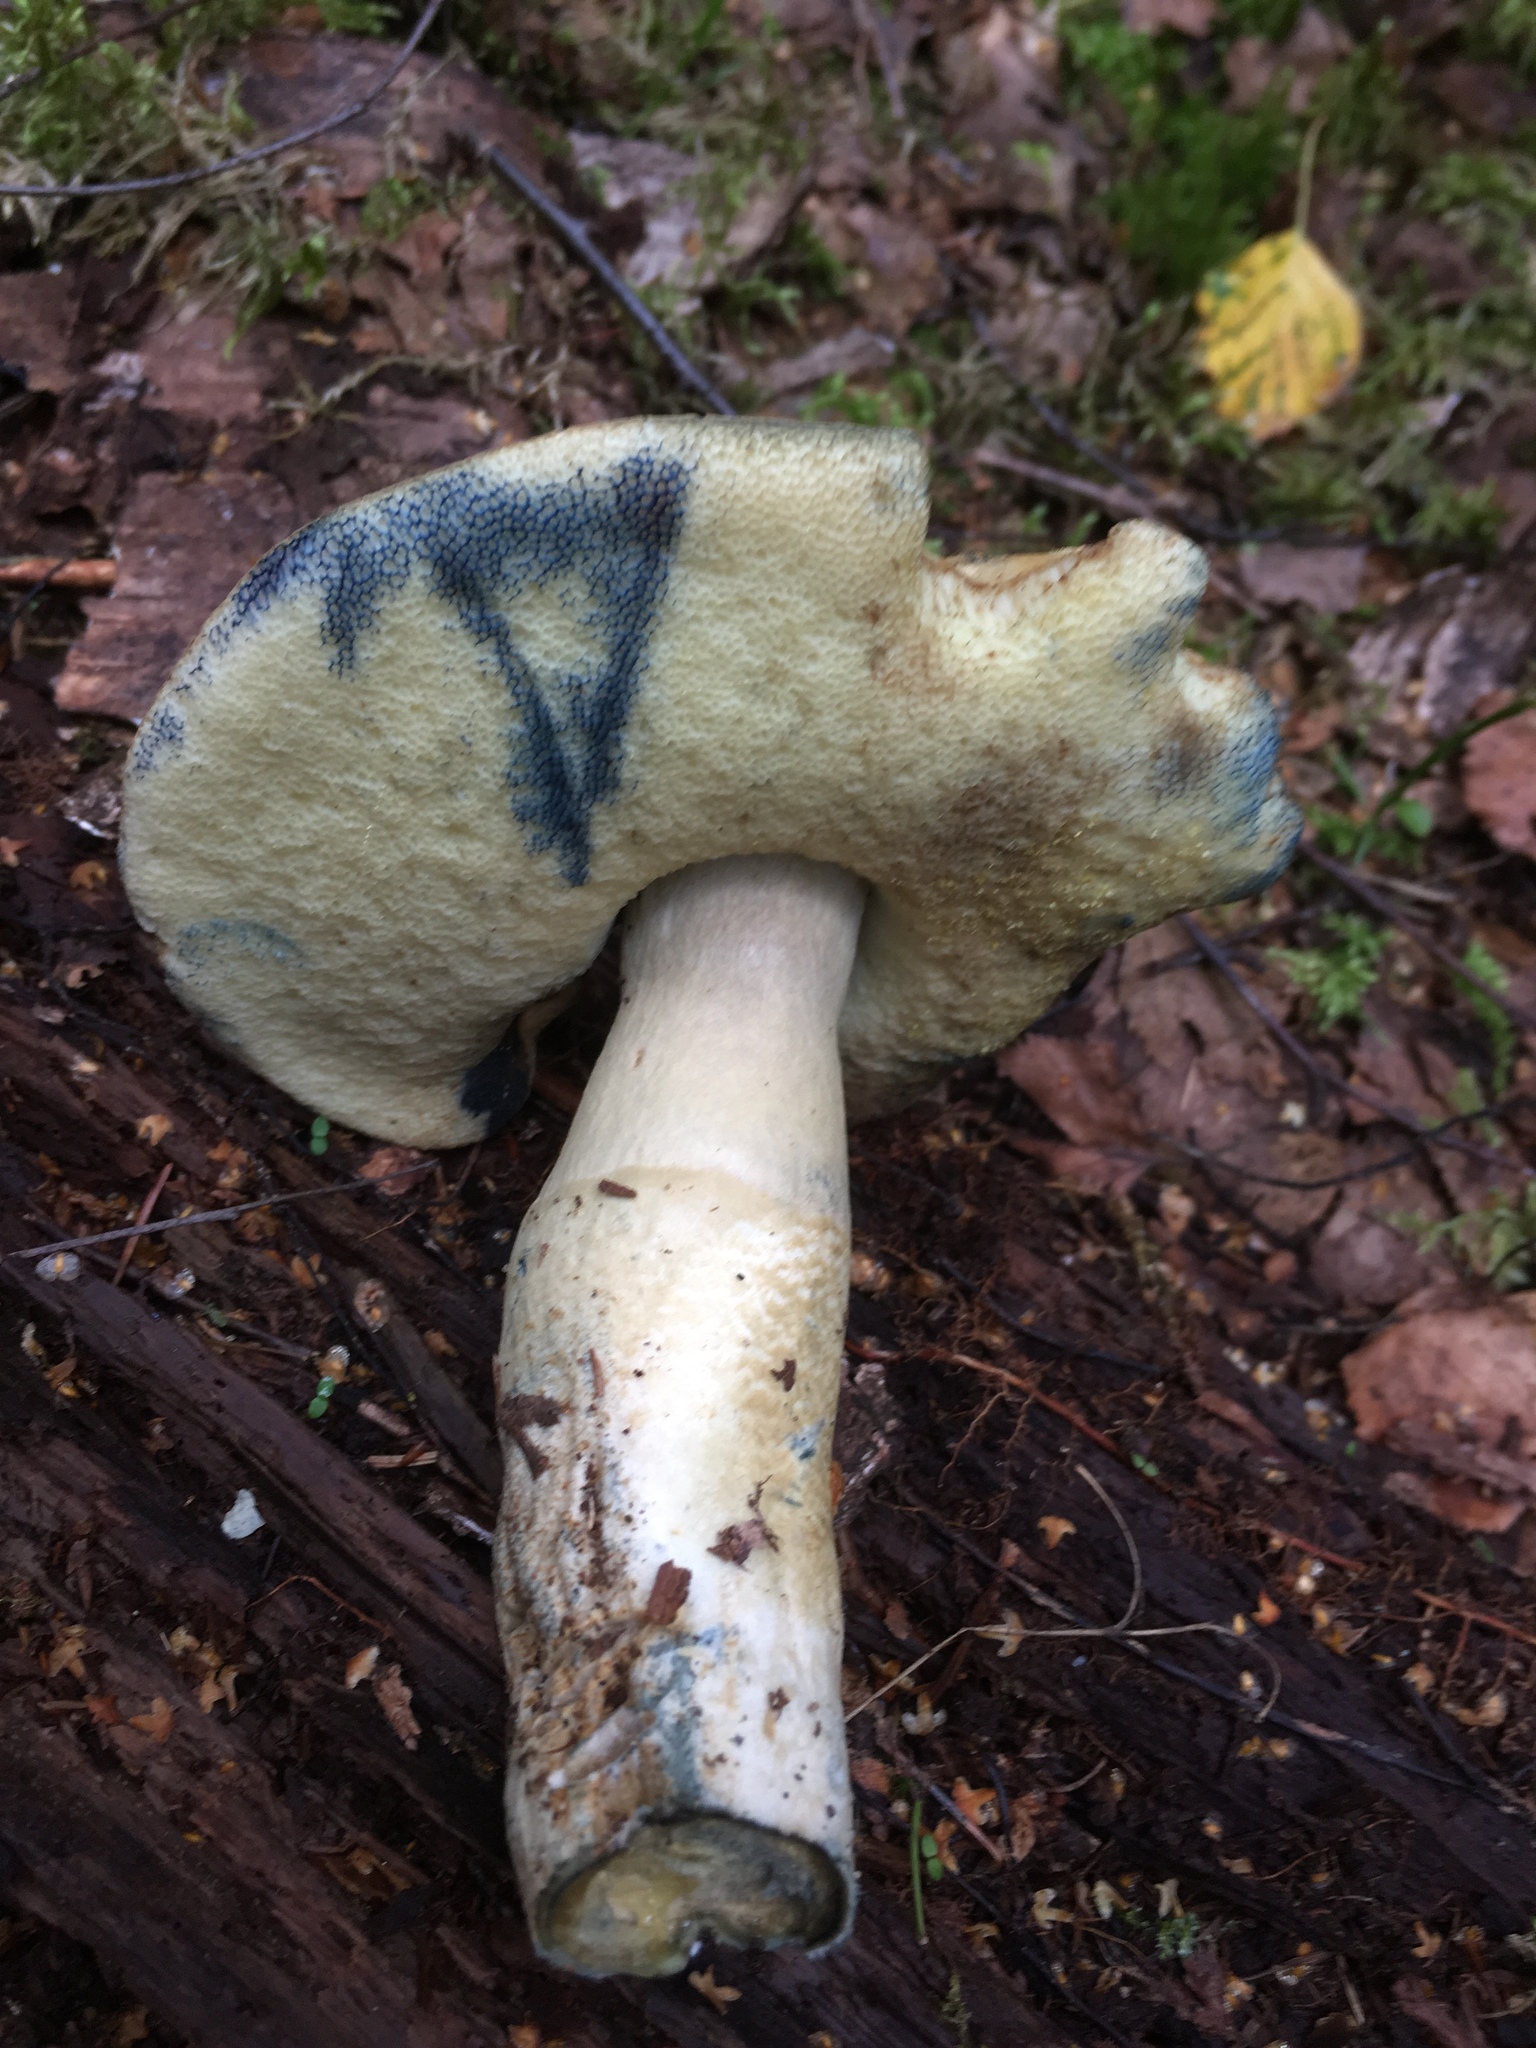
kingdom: Fungi
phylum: Basidiomycota
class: Agaricomycetes
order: Boletales
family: Gyroporaceae
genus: Gyroporus
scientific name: Gyroporus cyanescens
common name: Cornflower bolete
